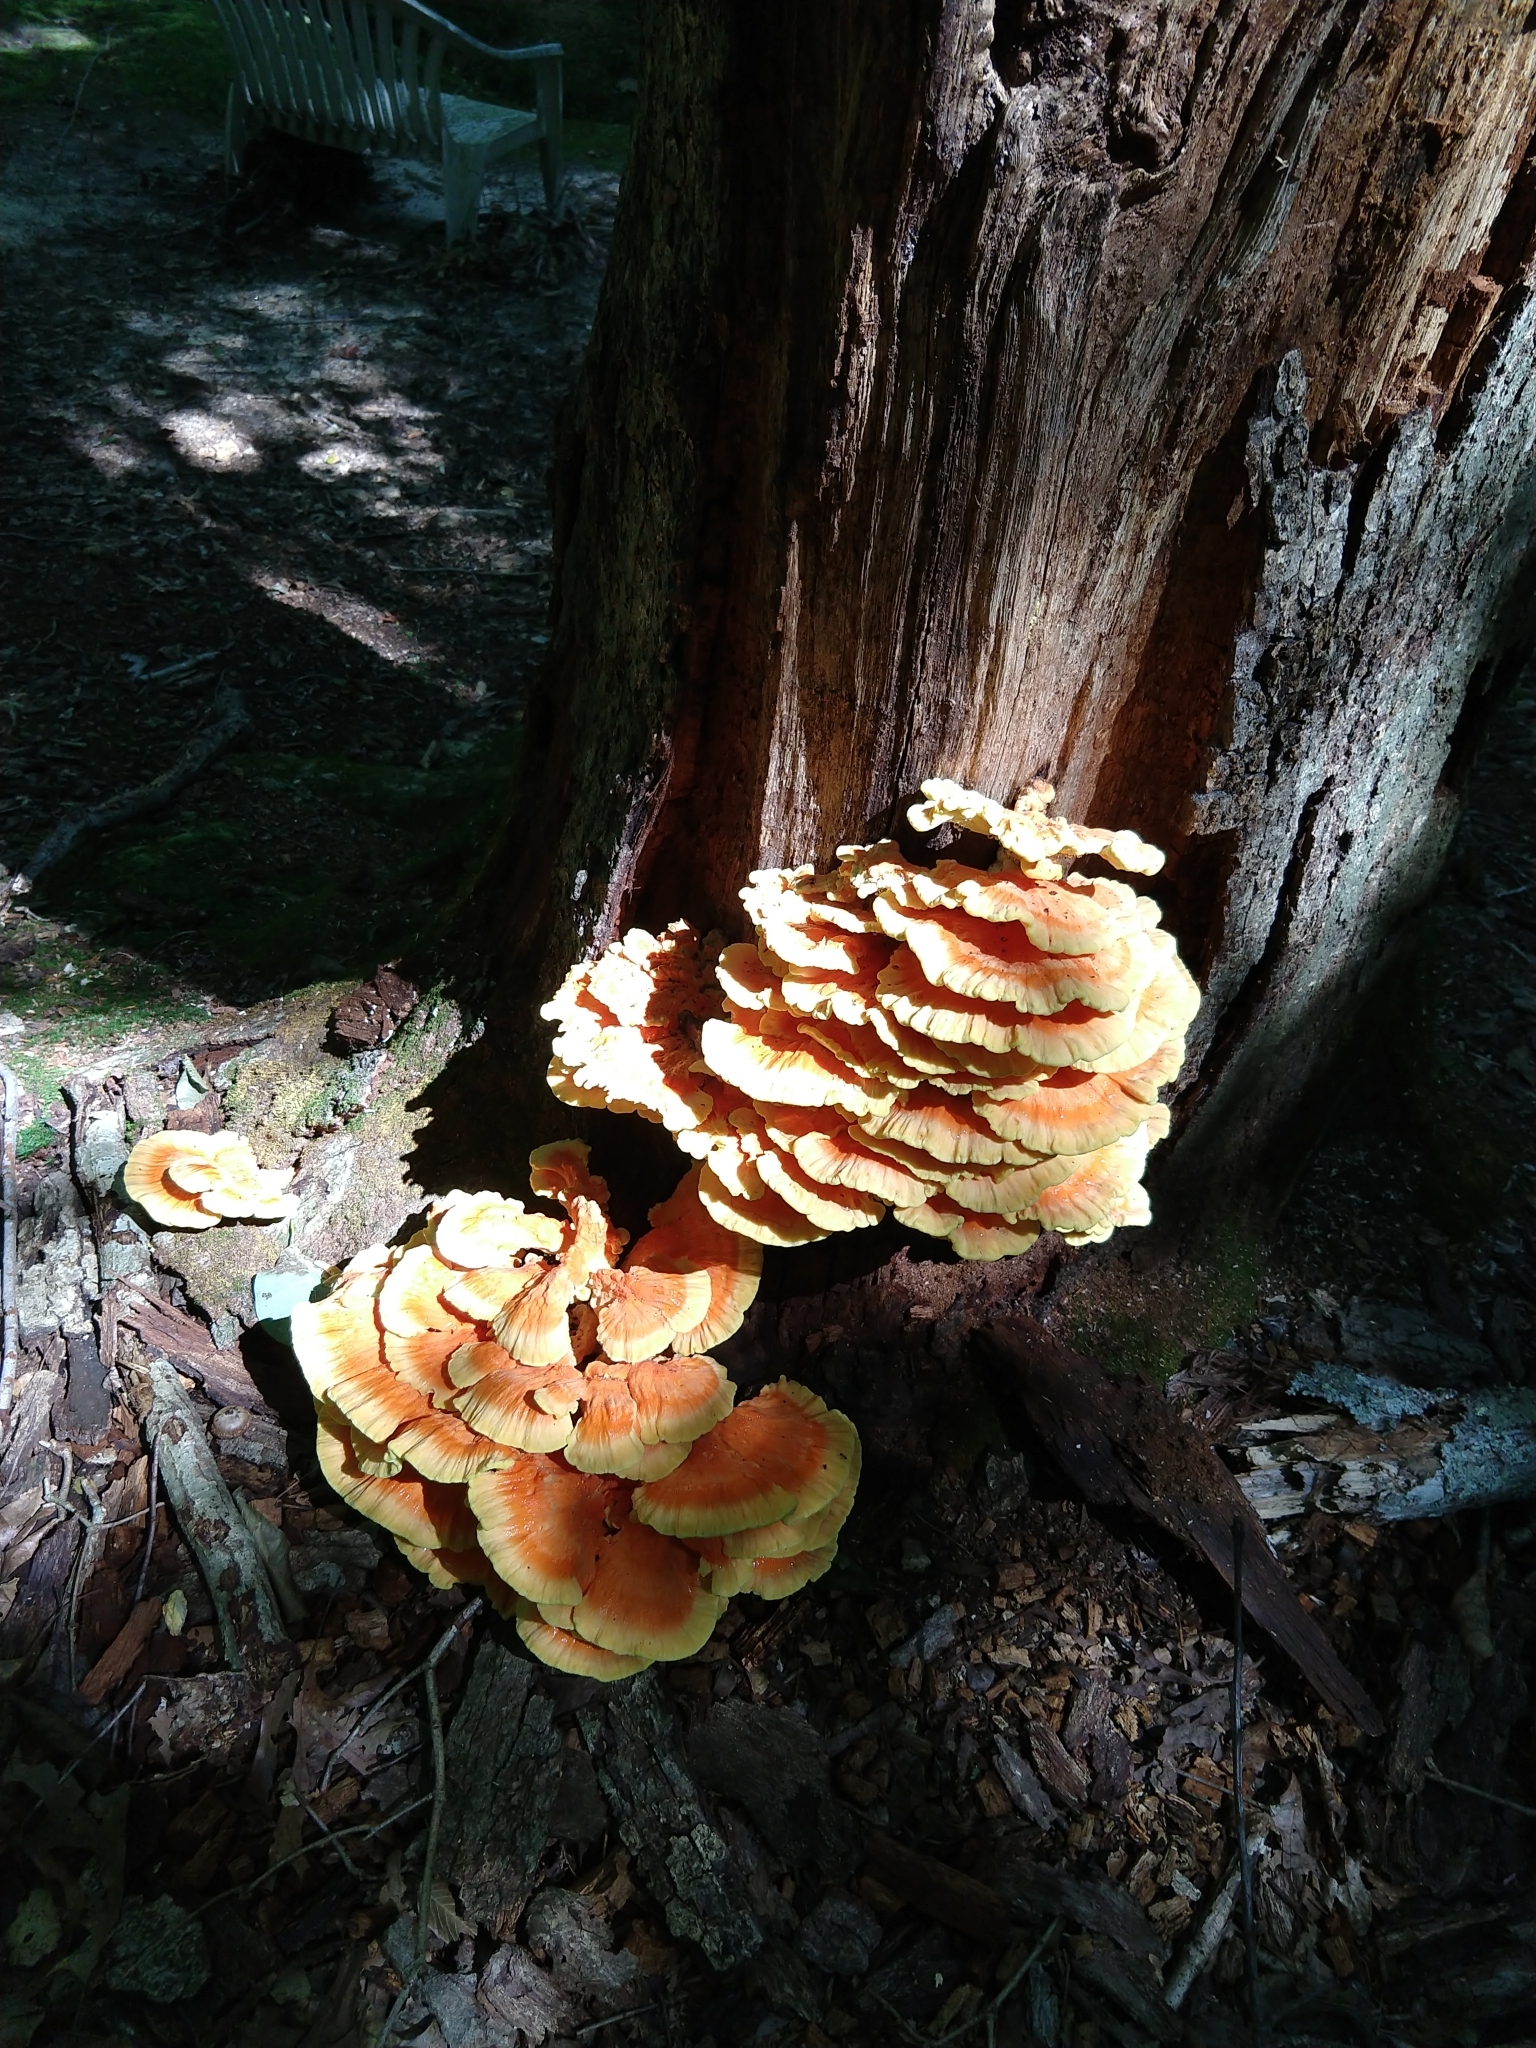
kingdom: Fungi
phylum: Basidiomycota
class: Agaricomycetes
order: Polyporales
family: Laetiporaceae
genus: Laetiporus
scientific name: Laetiporus sulphureus
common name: Chicken of the woods
